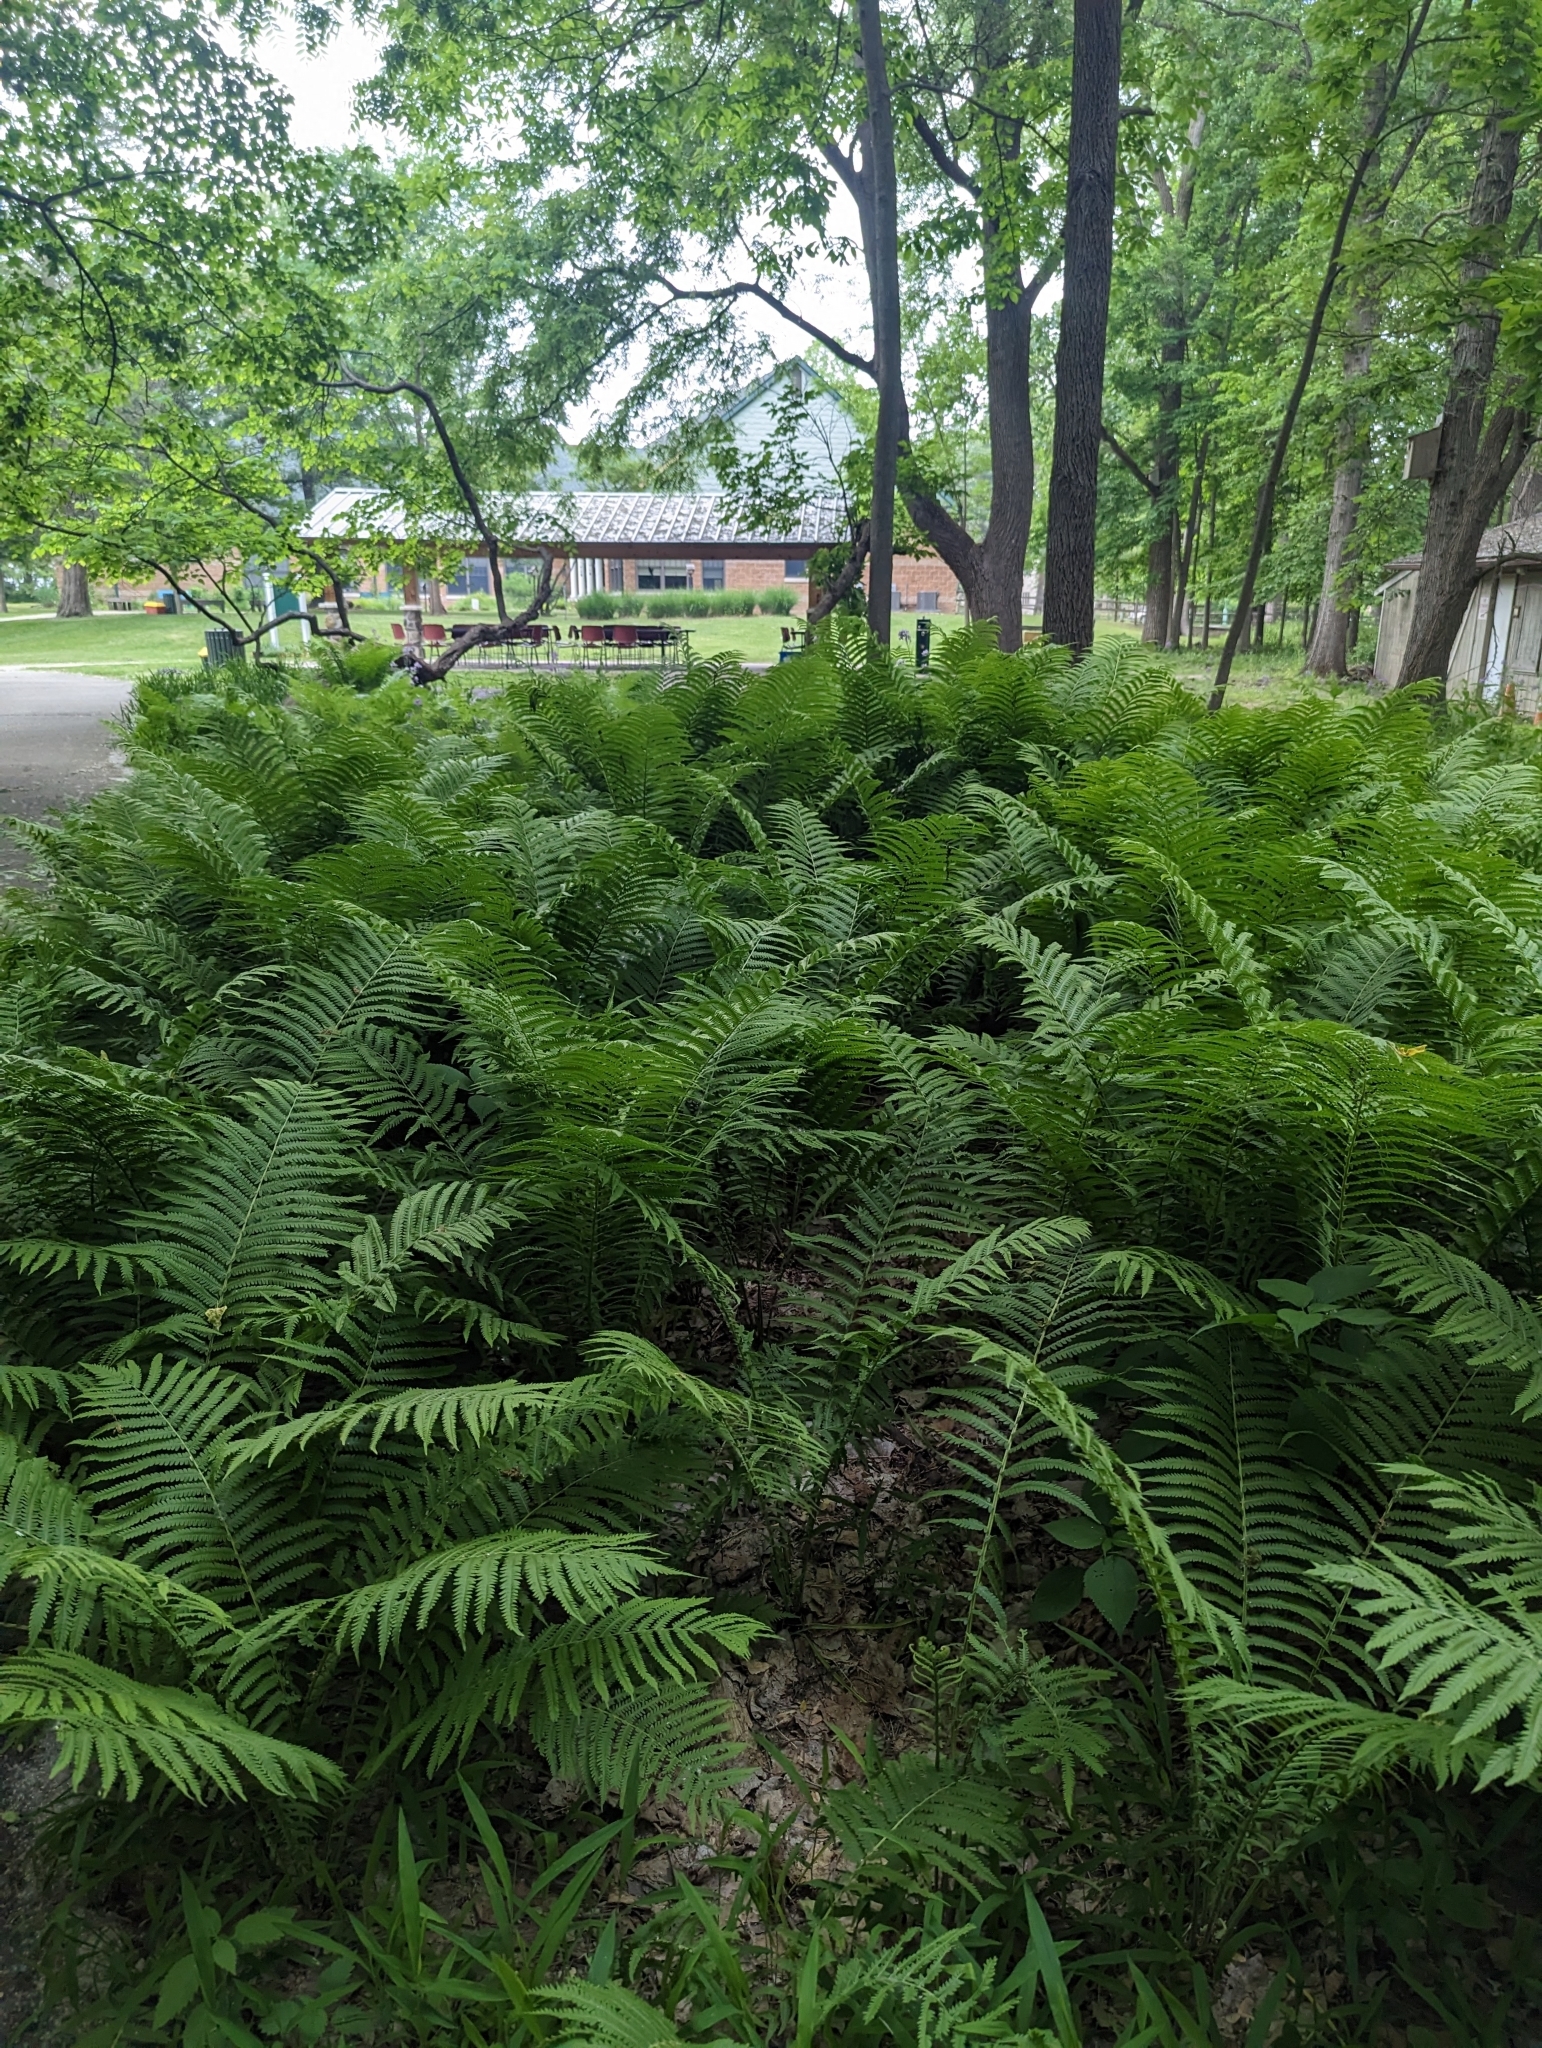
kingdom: Plantae
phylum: Tracheophyta
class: Polypodiopsida
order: Polypodiales
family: Onocleaceae
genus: Matteuccia
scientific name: Matteuccia struthiopteris
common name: Ostrich fern
